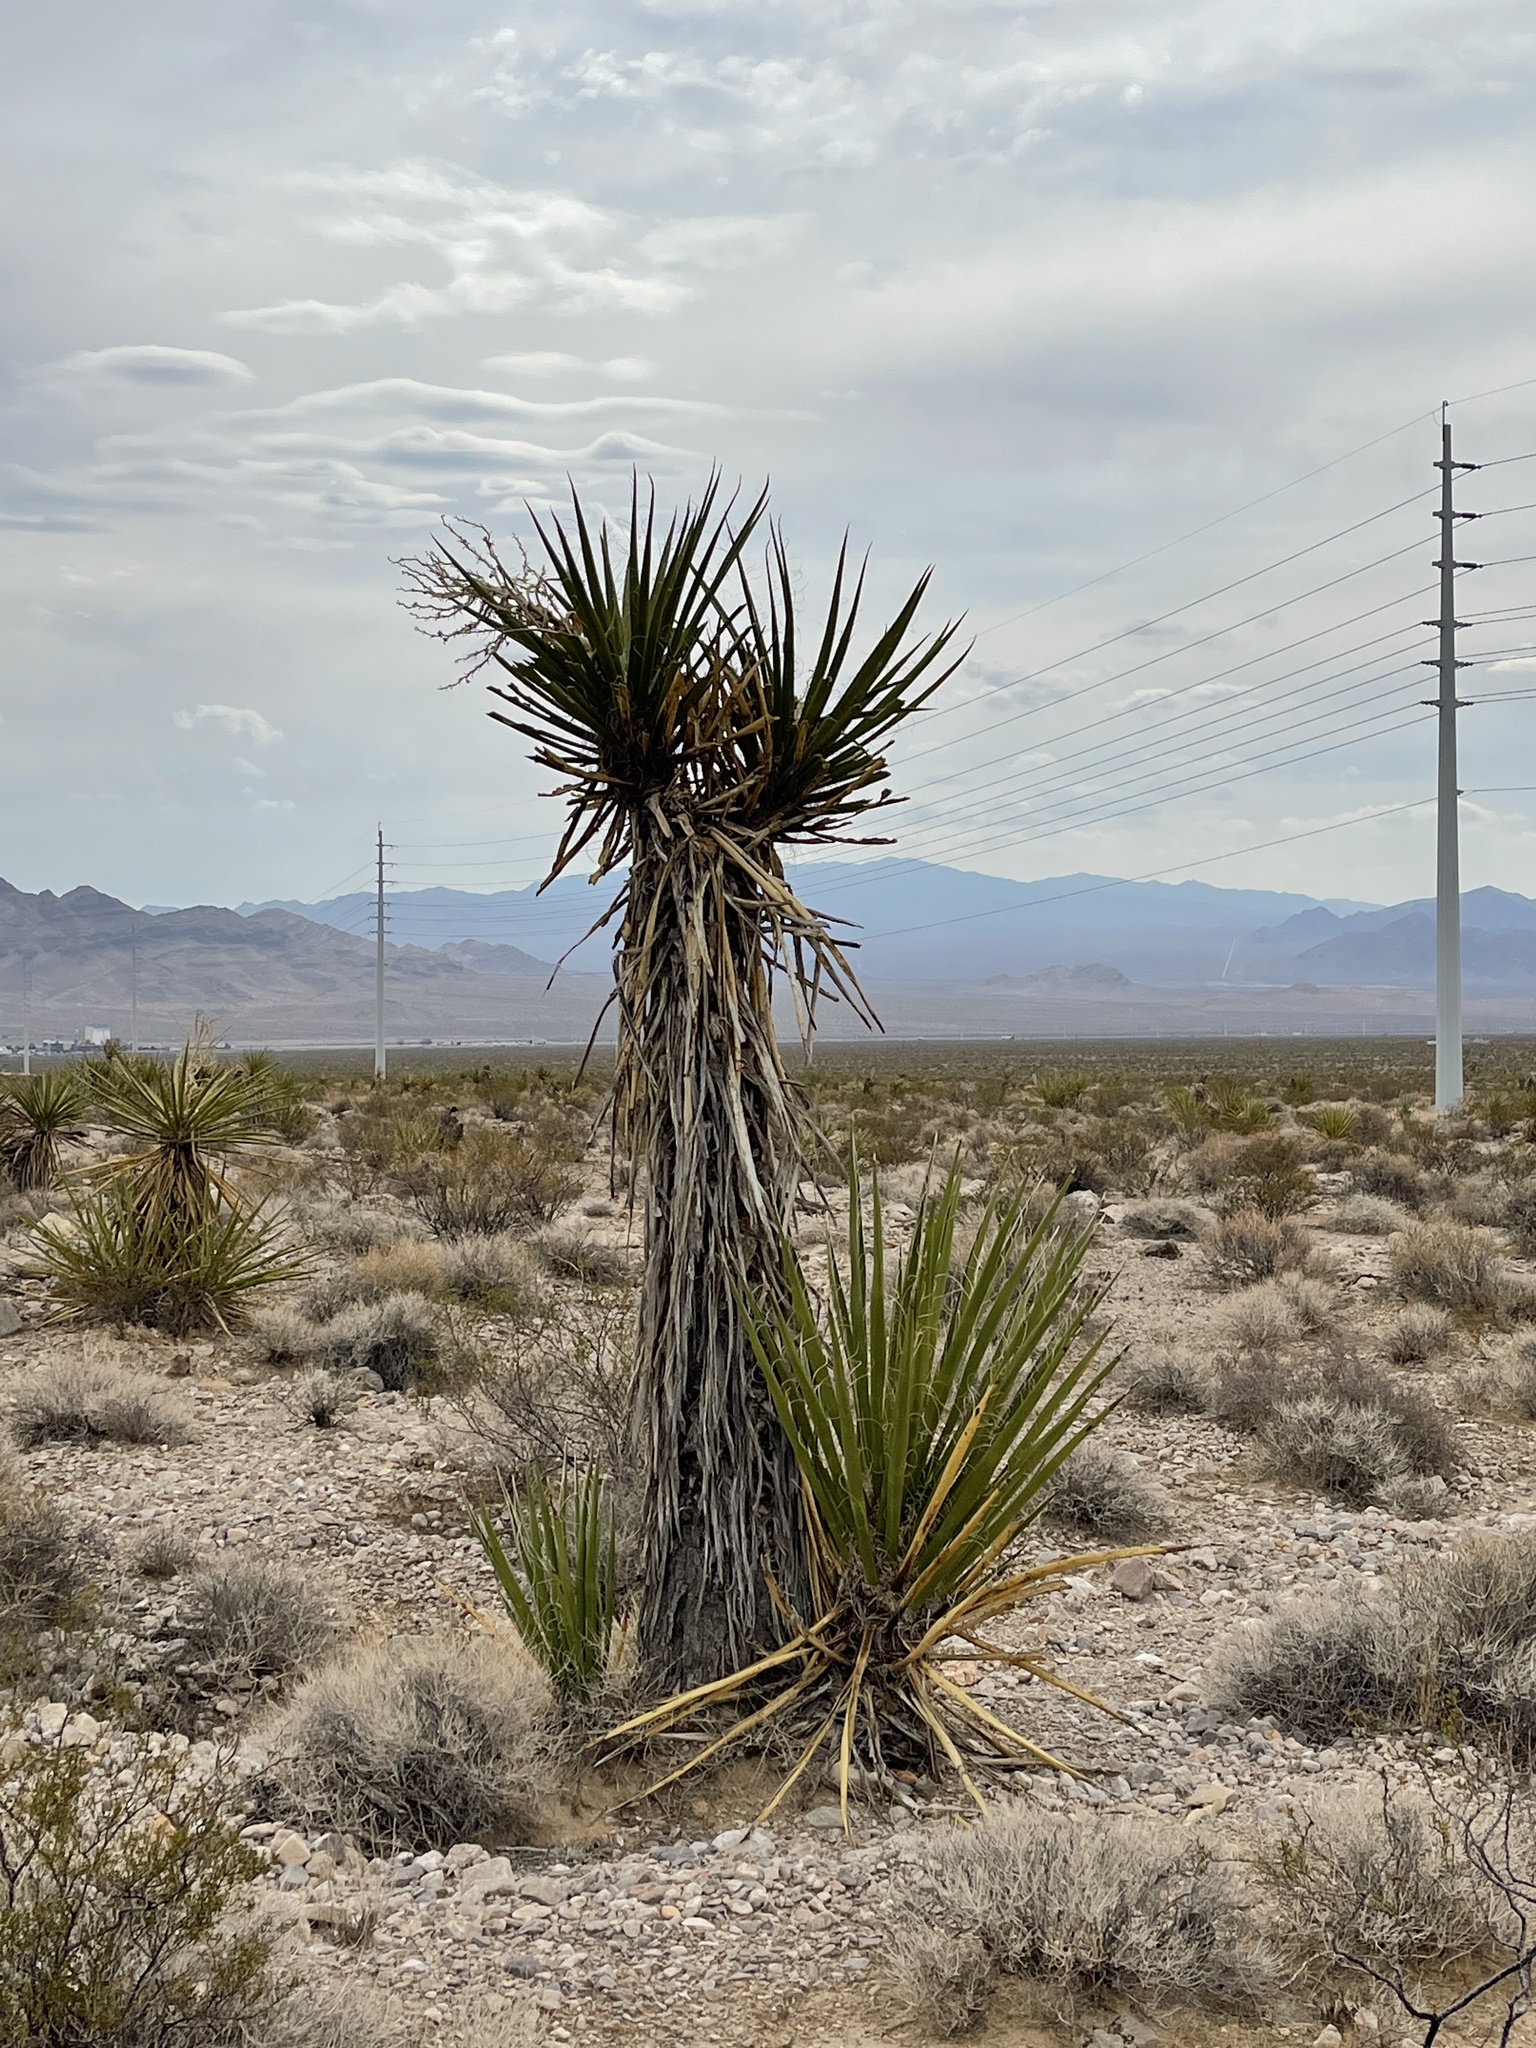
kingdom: Plantae
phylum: Tracheophyta
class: Liliopsida
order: Asparagales
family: Asparagaceae
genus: Yucca
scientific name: Yucca schidigera
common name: Mojave yucca
